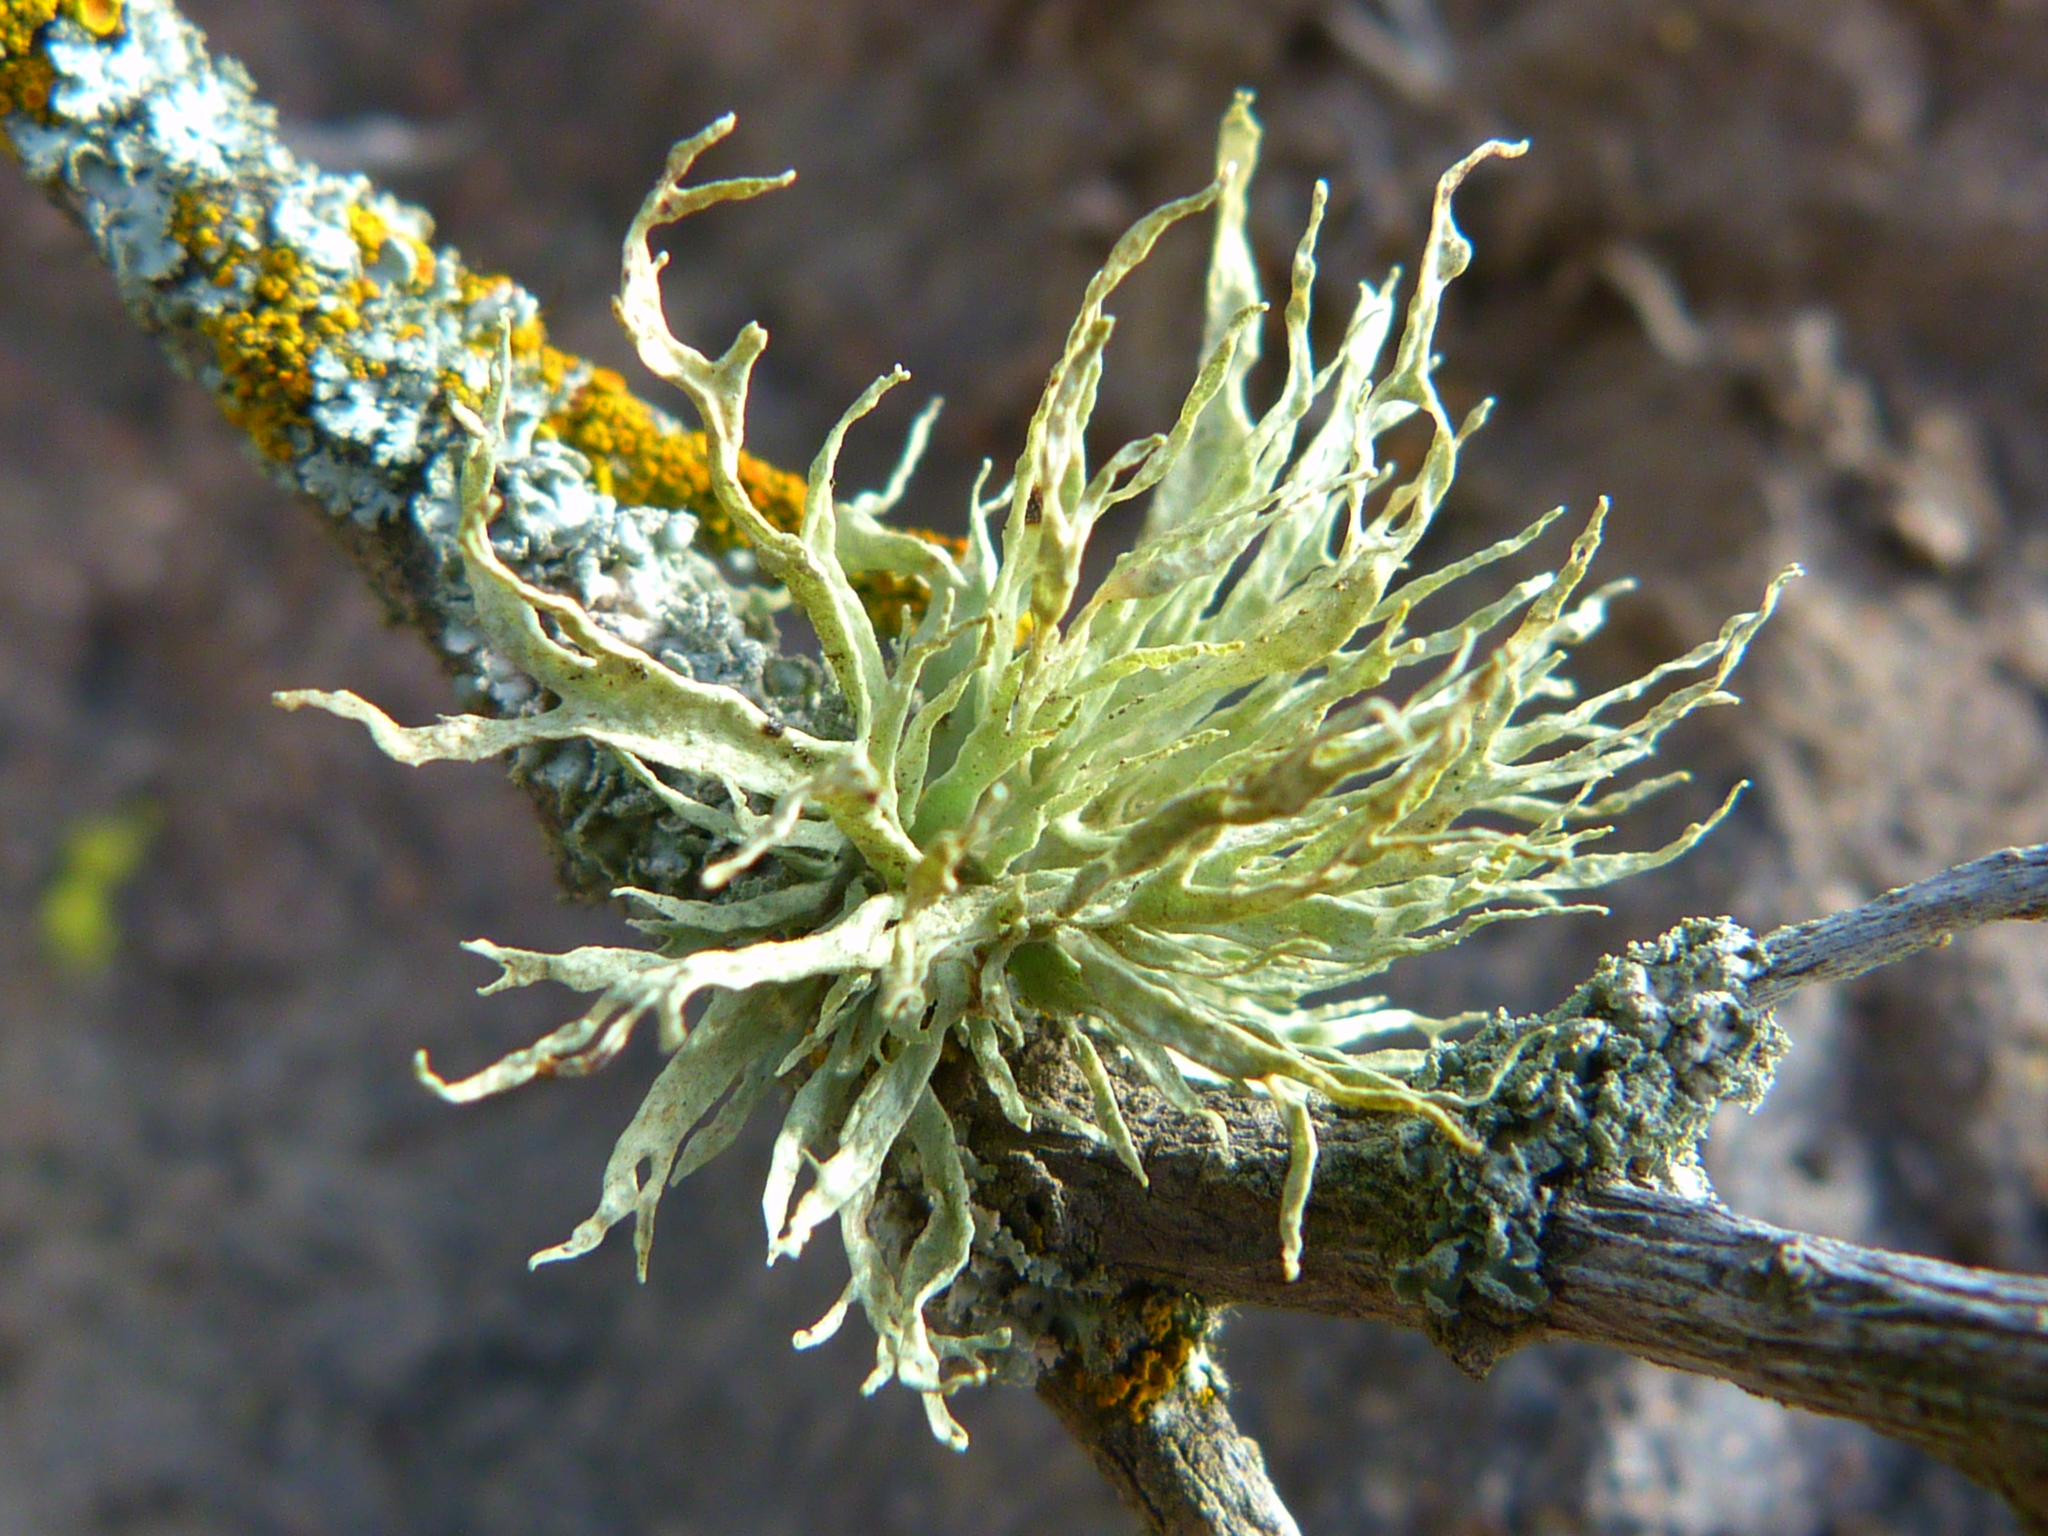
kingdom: Fungi
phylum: Ascomycota
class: Lecanoromycetes
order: Lecanorales
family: Ramalinaceae
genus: Ramalina
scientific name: Ramalina subleptocarpha
